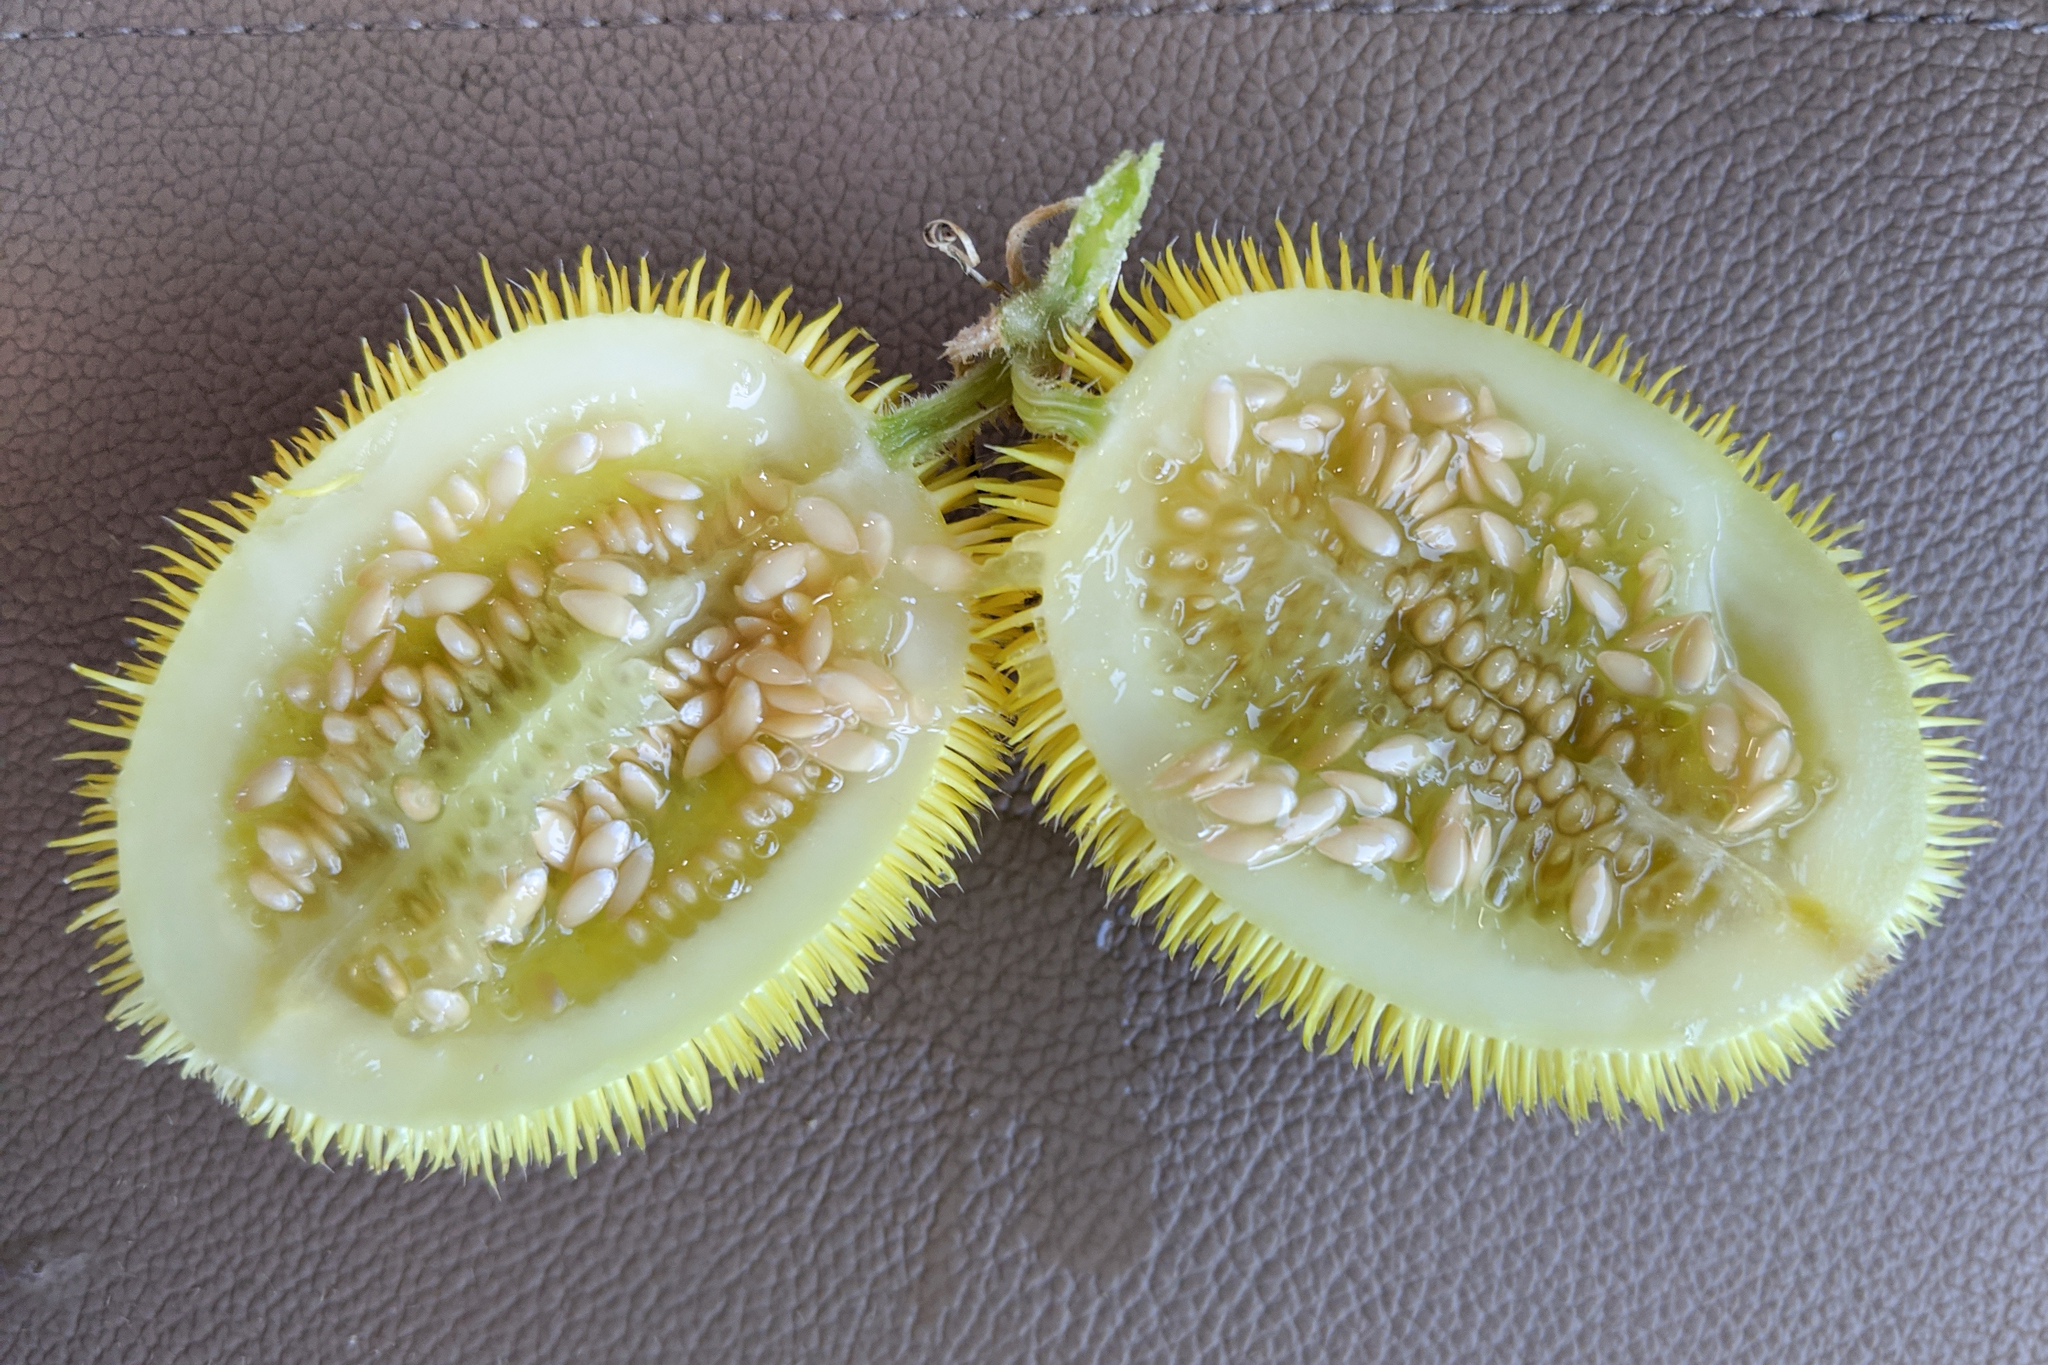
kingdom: Plantae
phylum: Tracheophyta
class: Magnoliopsida
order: Cucurbitales
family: Cucurbitaceae
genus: Cucumis
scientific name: Cucumis dipsaceus
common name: Hedgehog gourd
